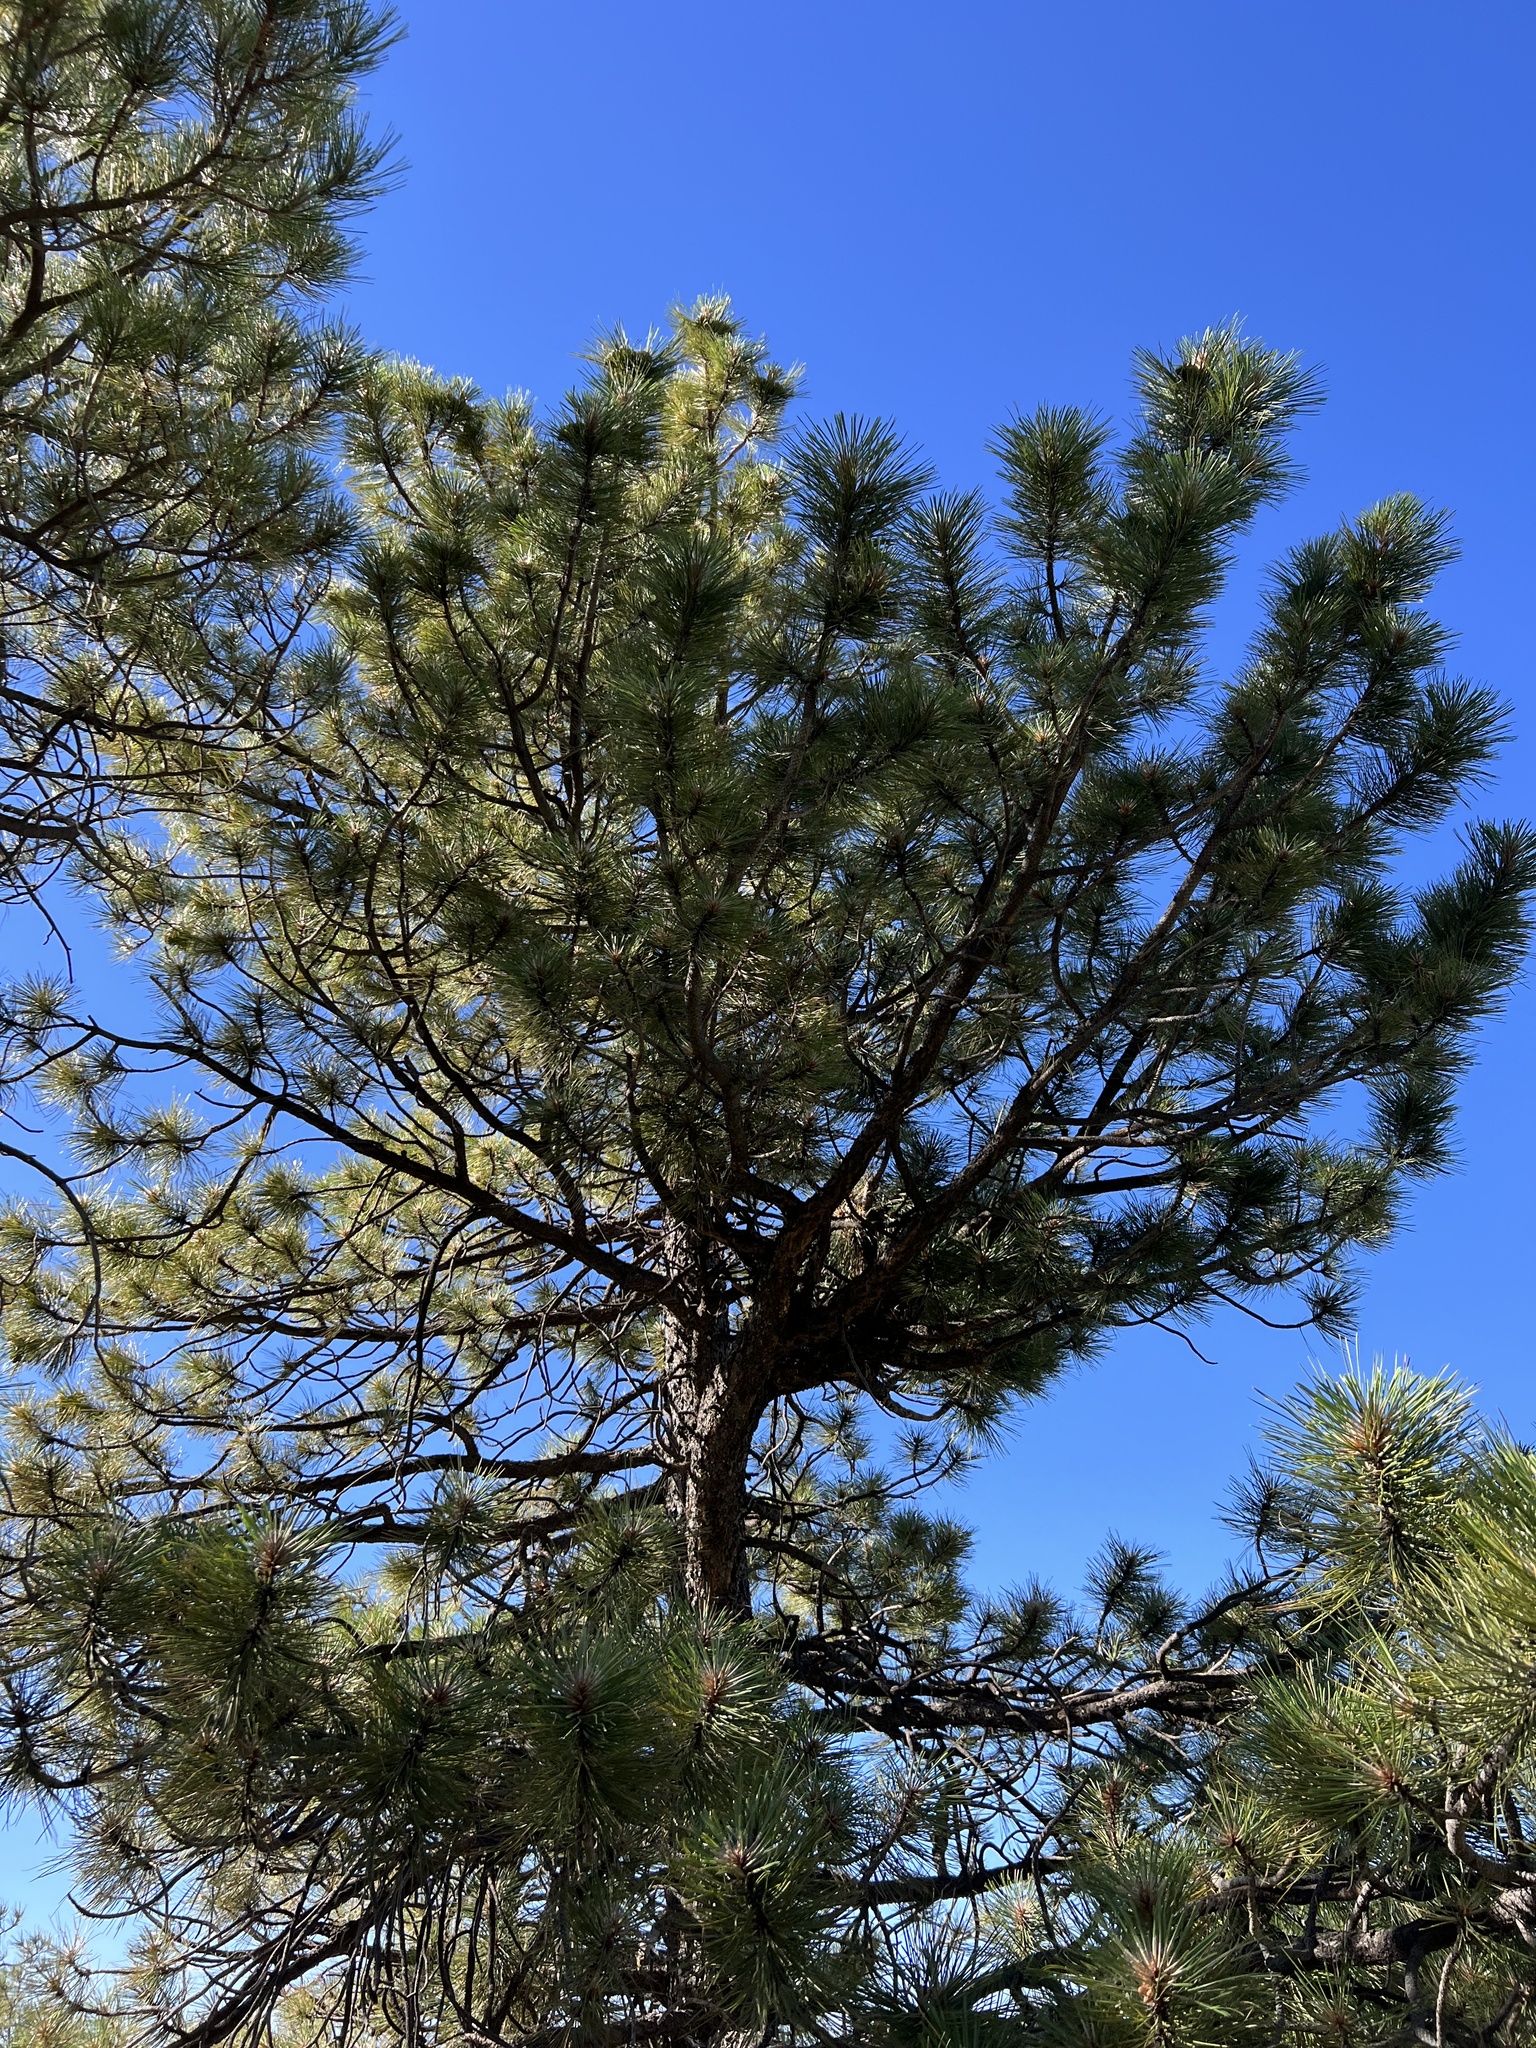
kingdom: Plantae
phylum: Tracheophyta
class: Pinopsida
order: Pinales
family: Pinaceae
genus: Pinus
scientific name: Pinus ponderosa
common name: Western yellow-pine
